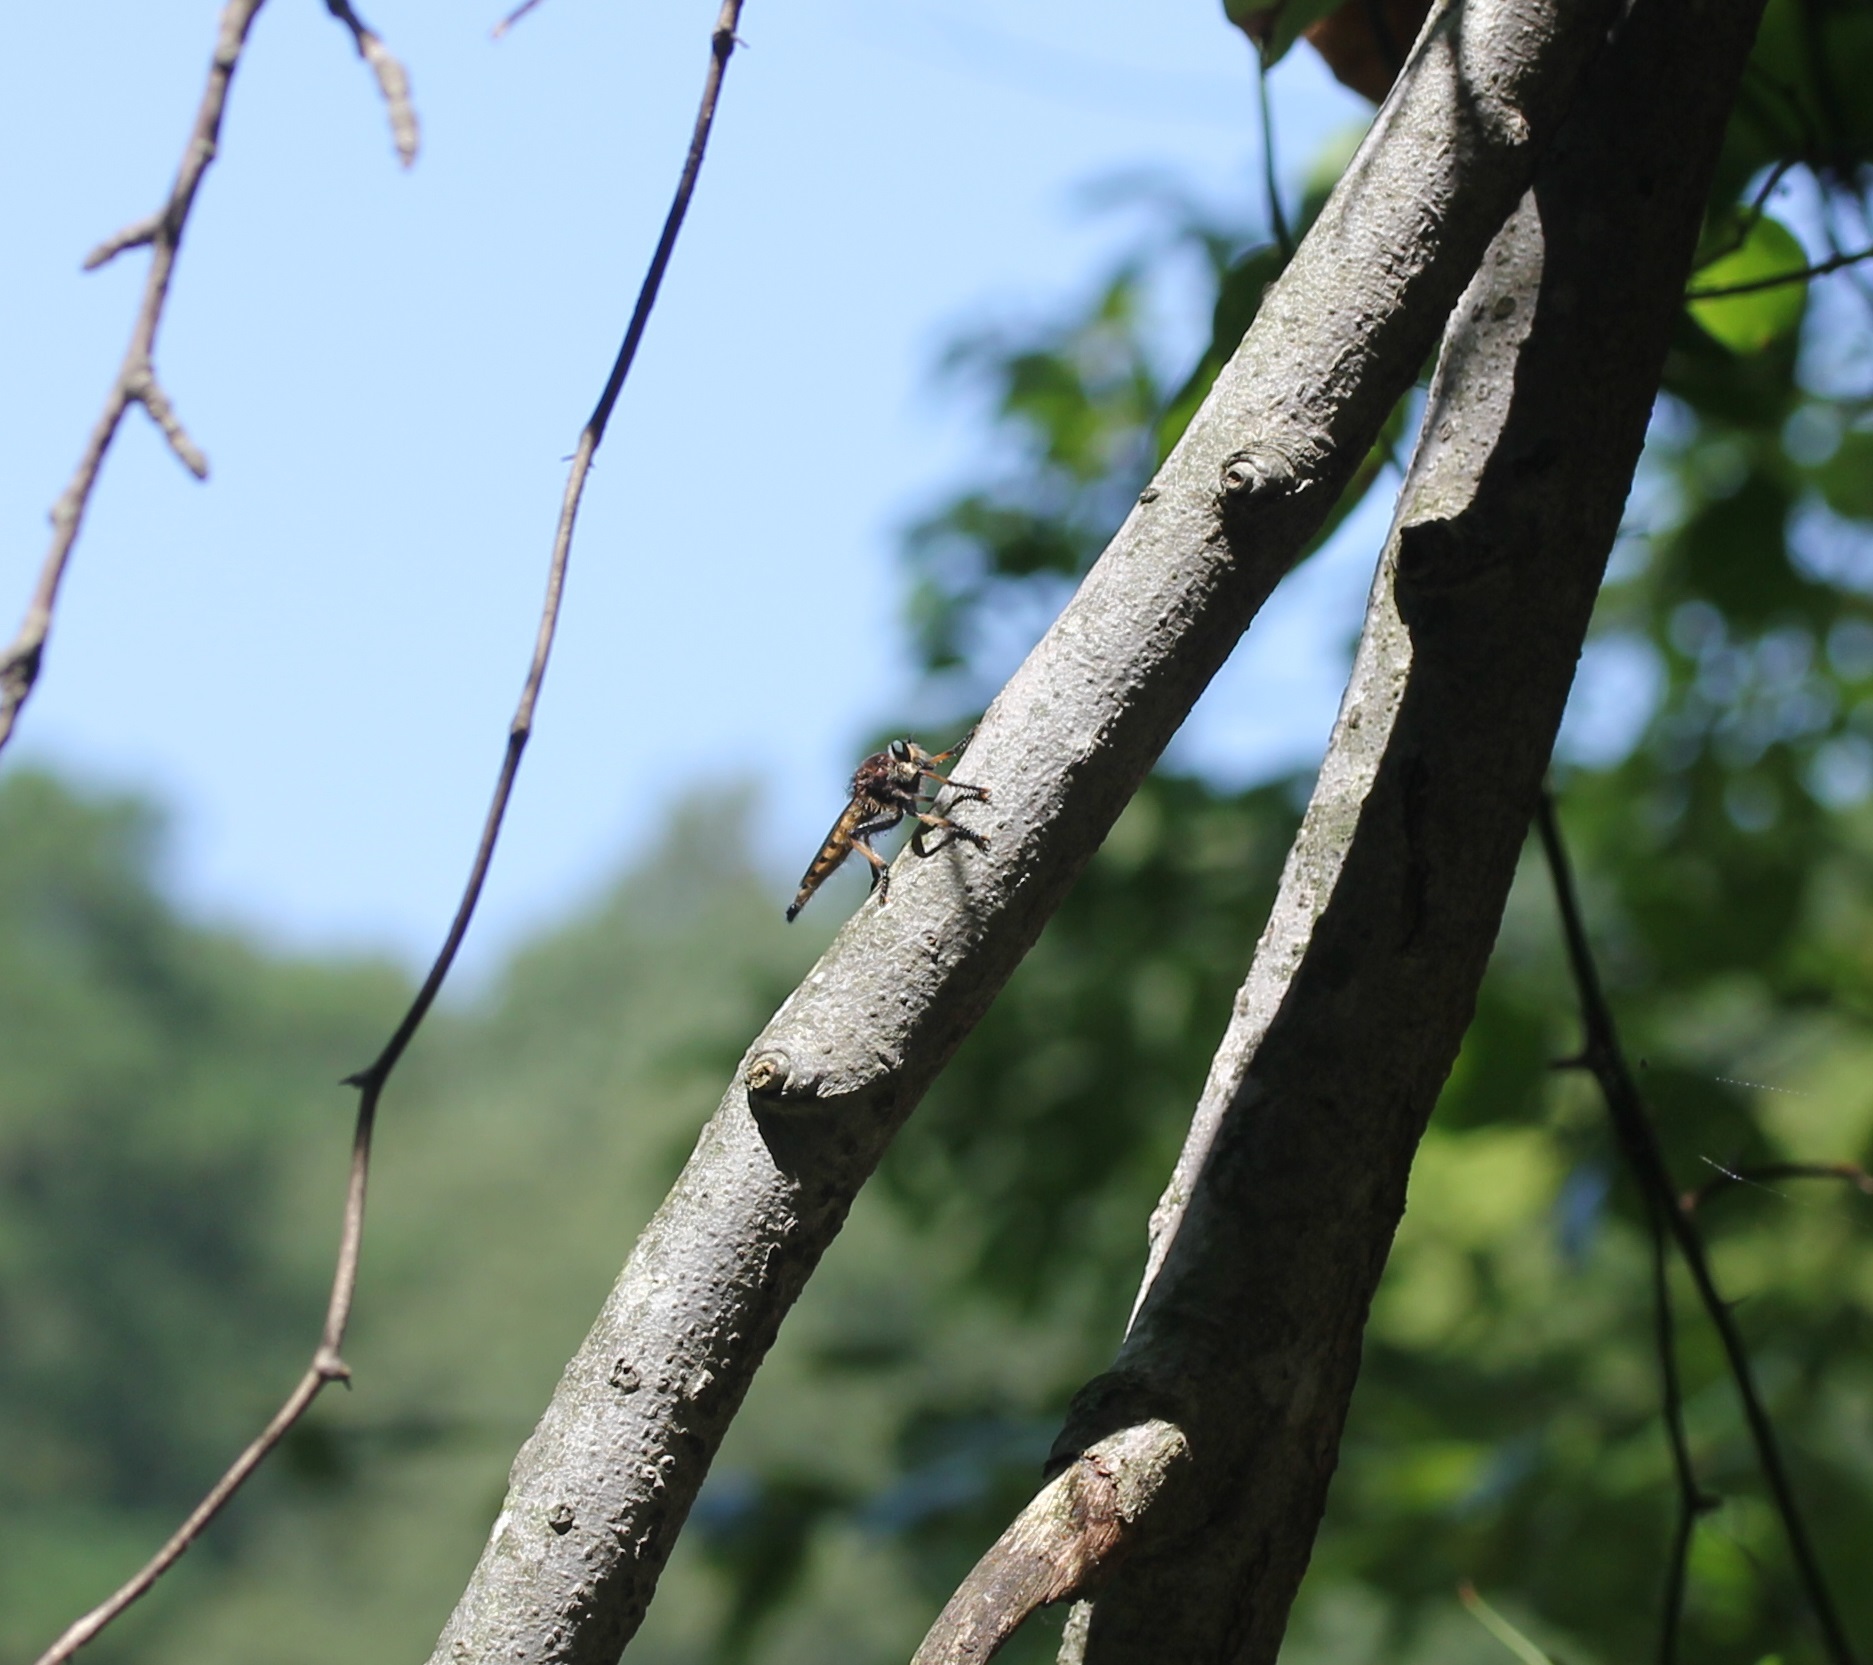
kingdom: Animalia
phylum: Arthropoda
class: Insecta
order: Diptera
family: Asilidae
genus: Promachus
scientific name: Promachus rufipes
